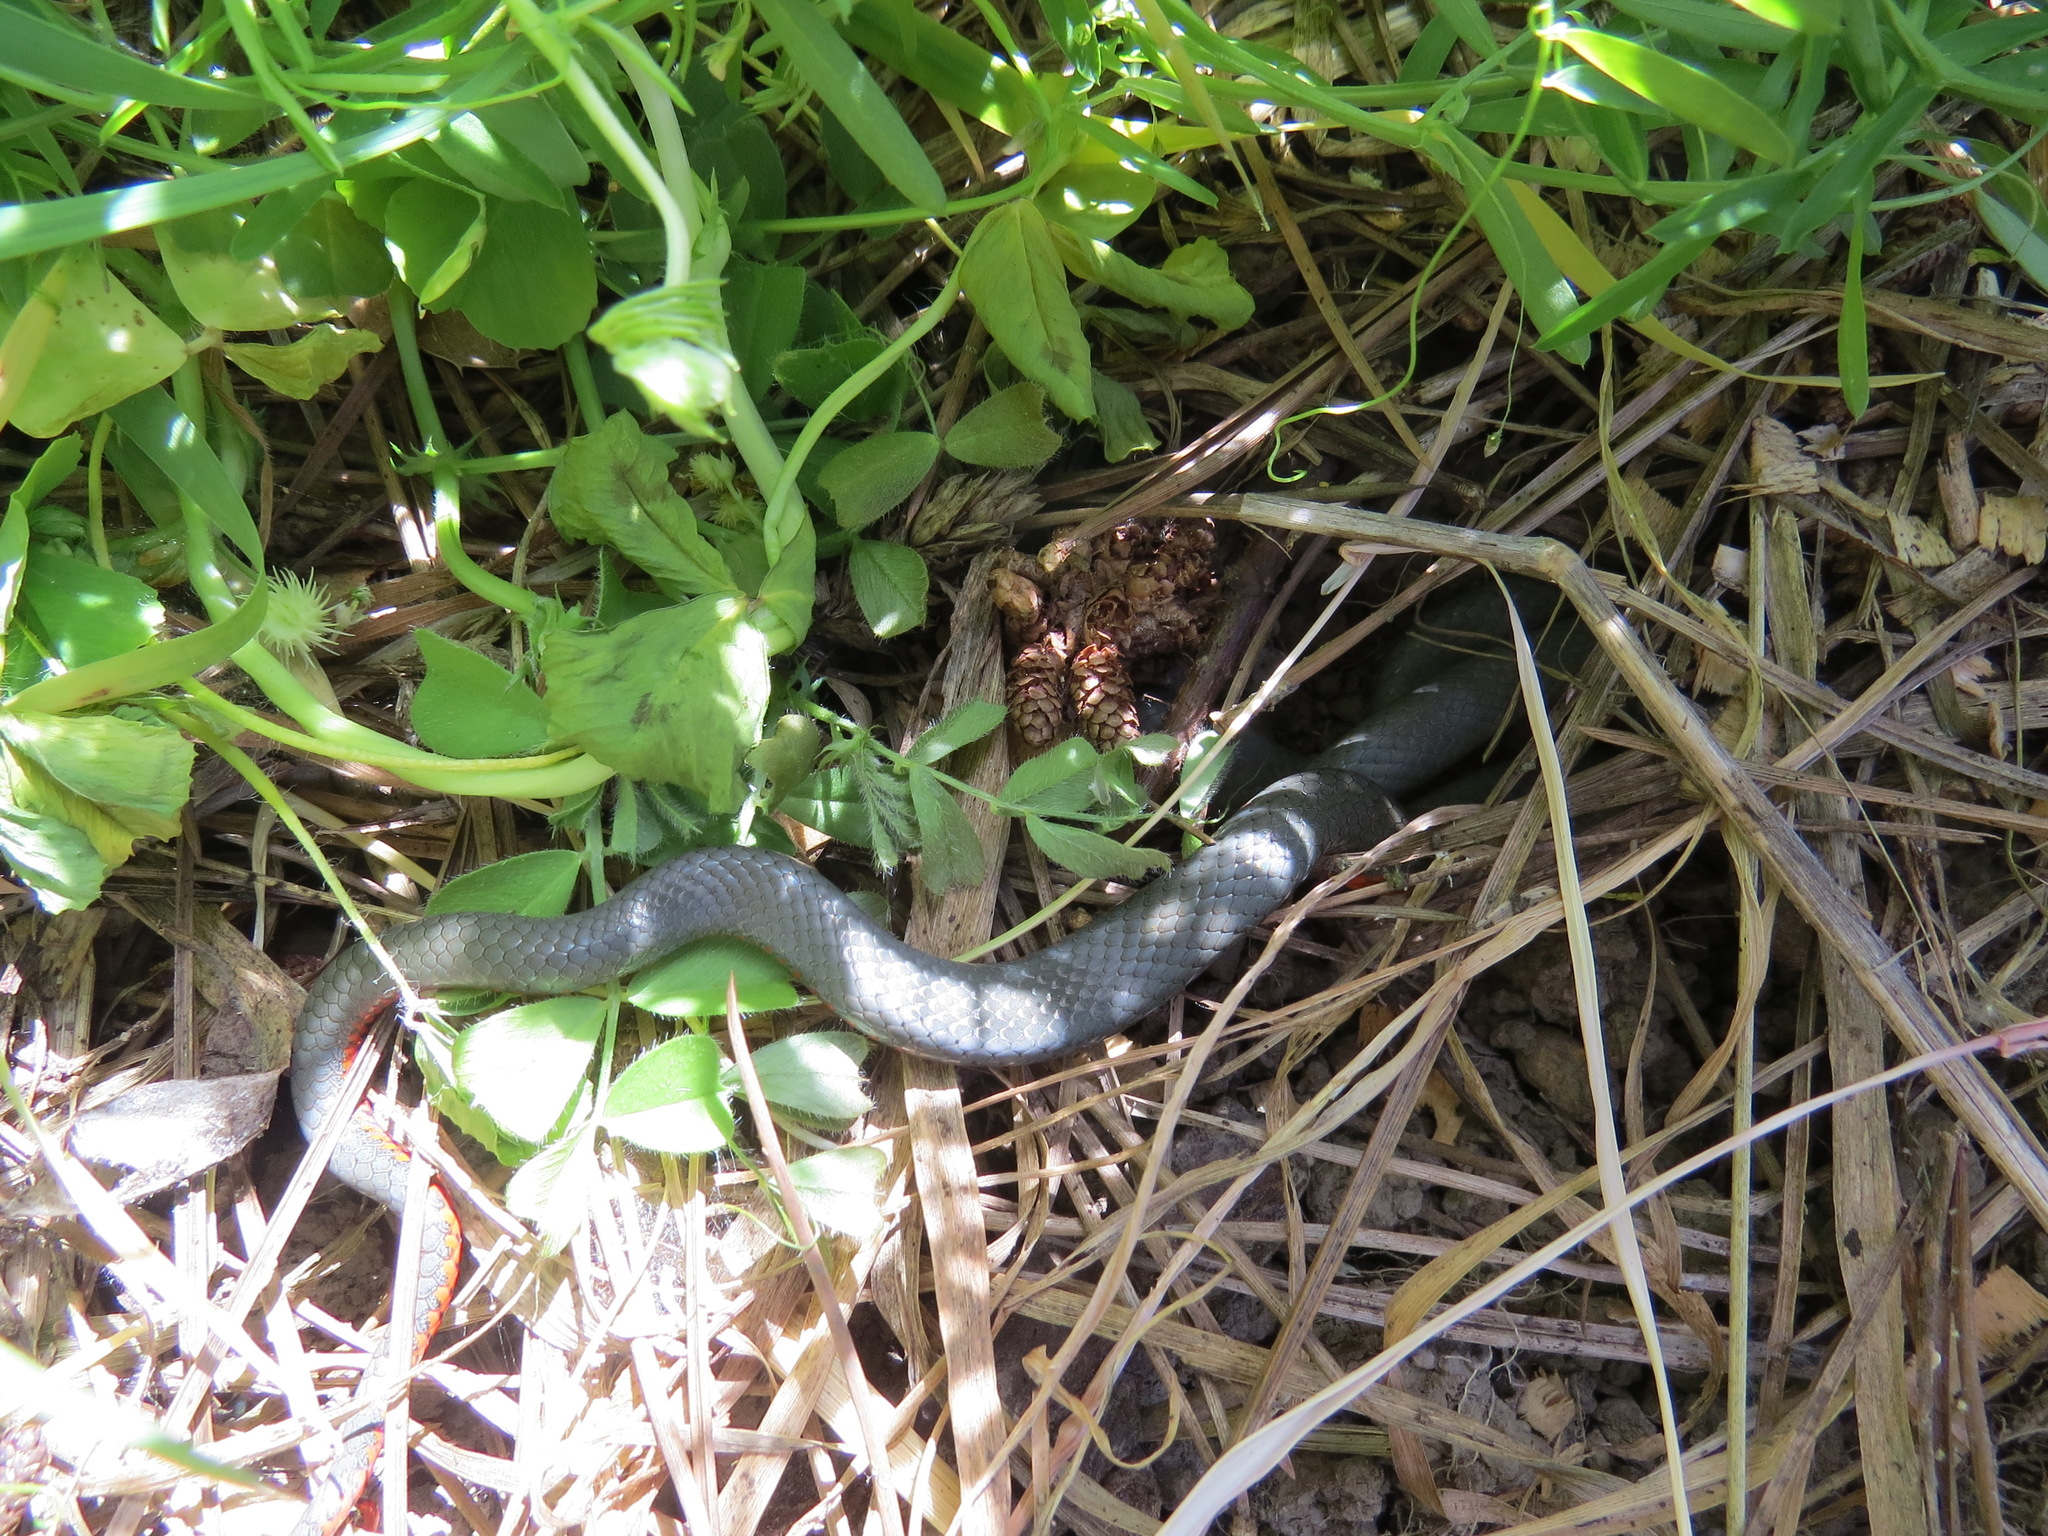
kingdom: Animalia
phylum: Chordata
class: Squamata
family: Colubridae
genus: Diadophis
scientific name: Diadophis punctatus
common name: Ringneck snake
